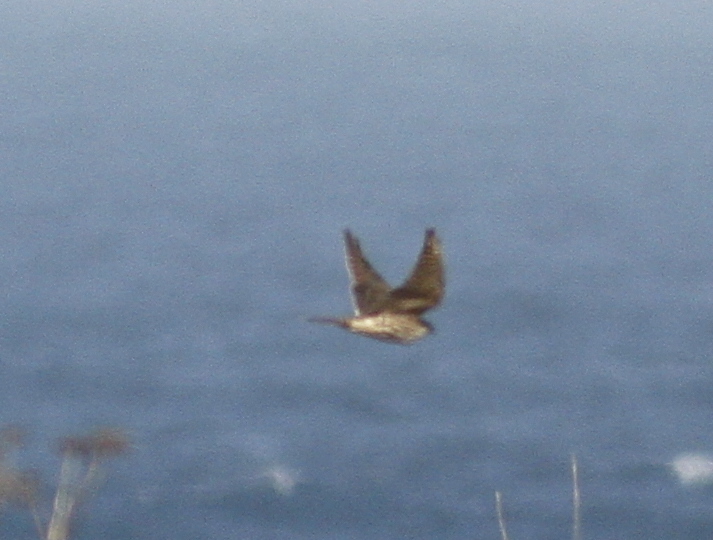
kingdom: Animalia
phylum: Chordata
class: Aves
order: Falconiformes
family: Falconidae
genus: Falco
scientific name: Falco columbarius
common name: Merlin
